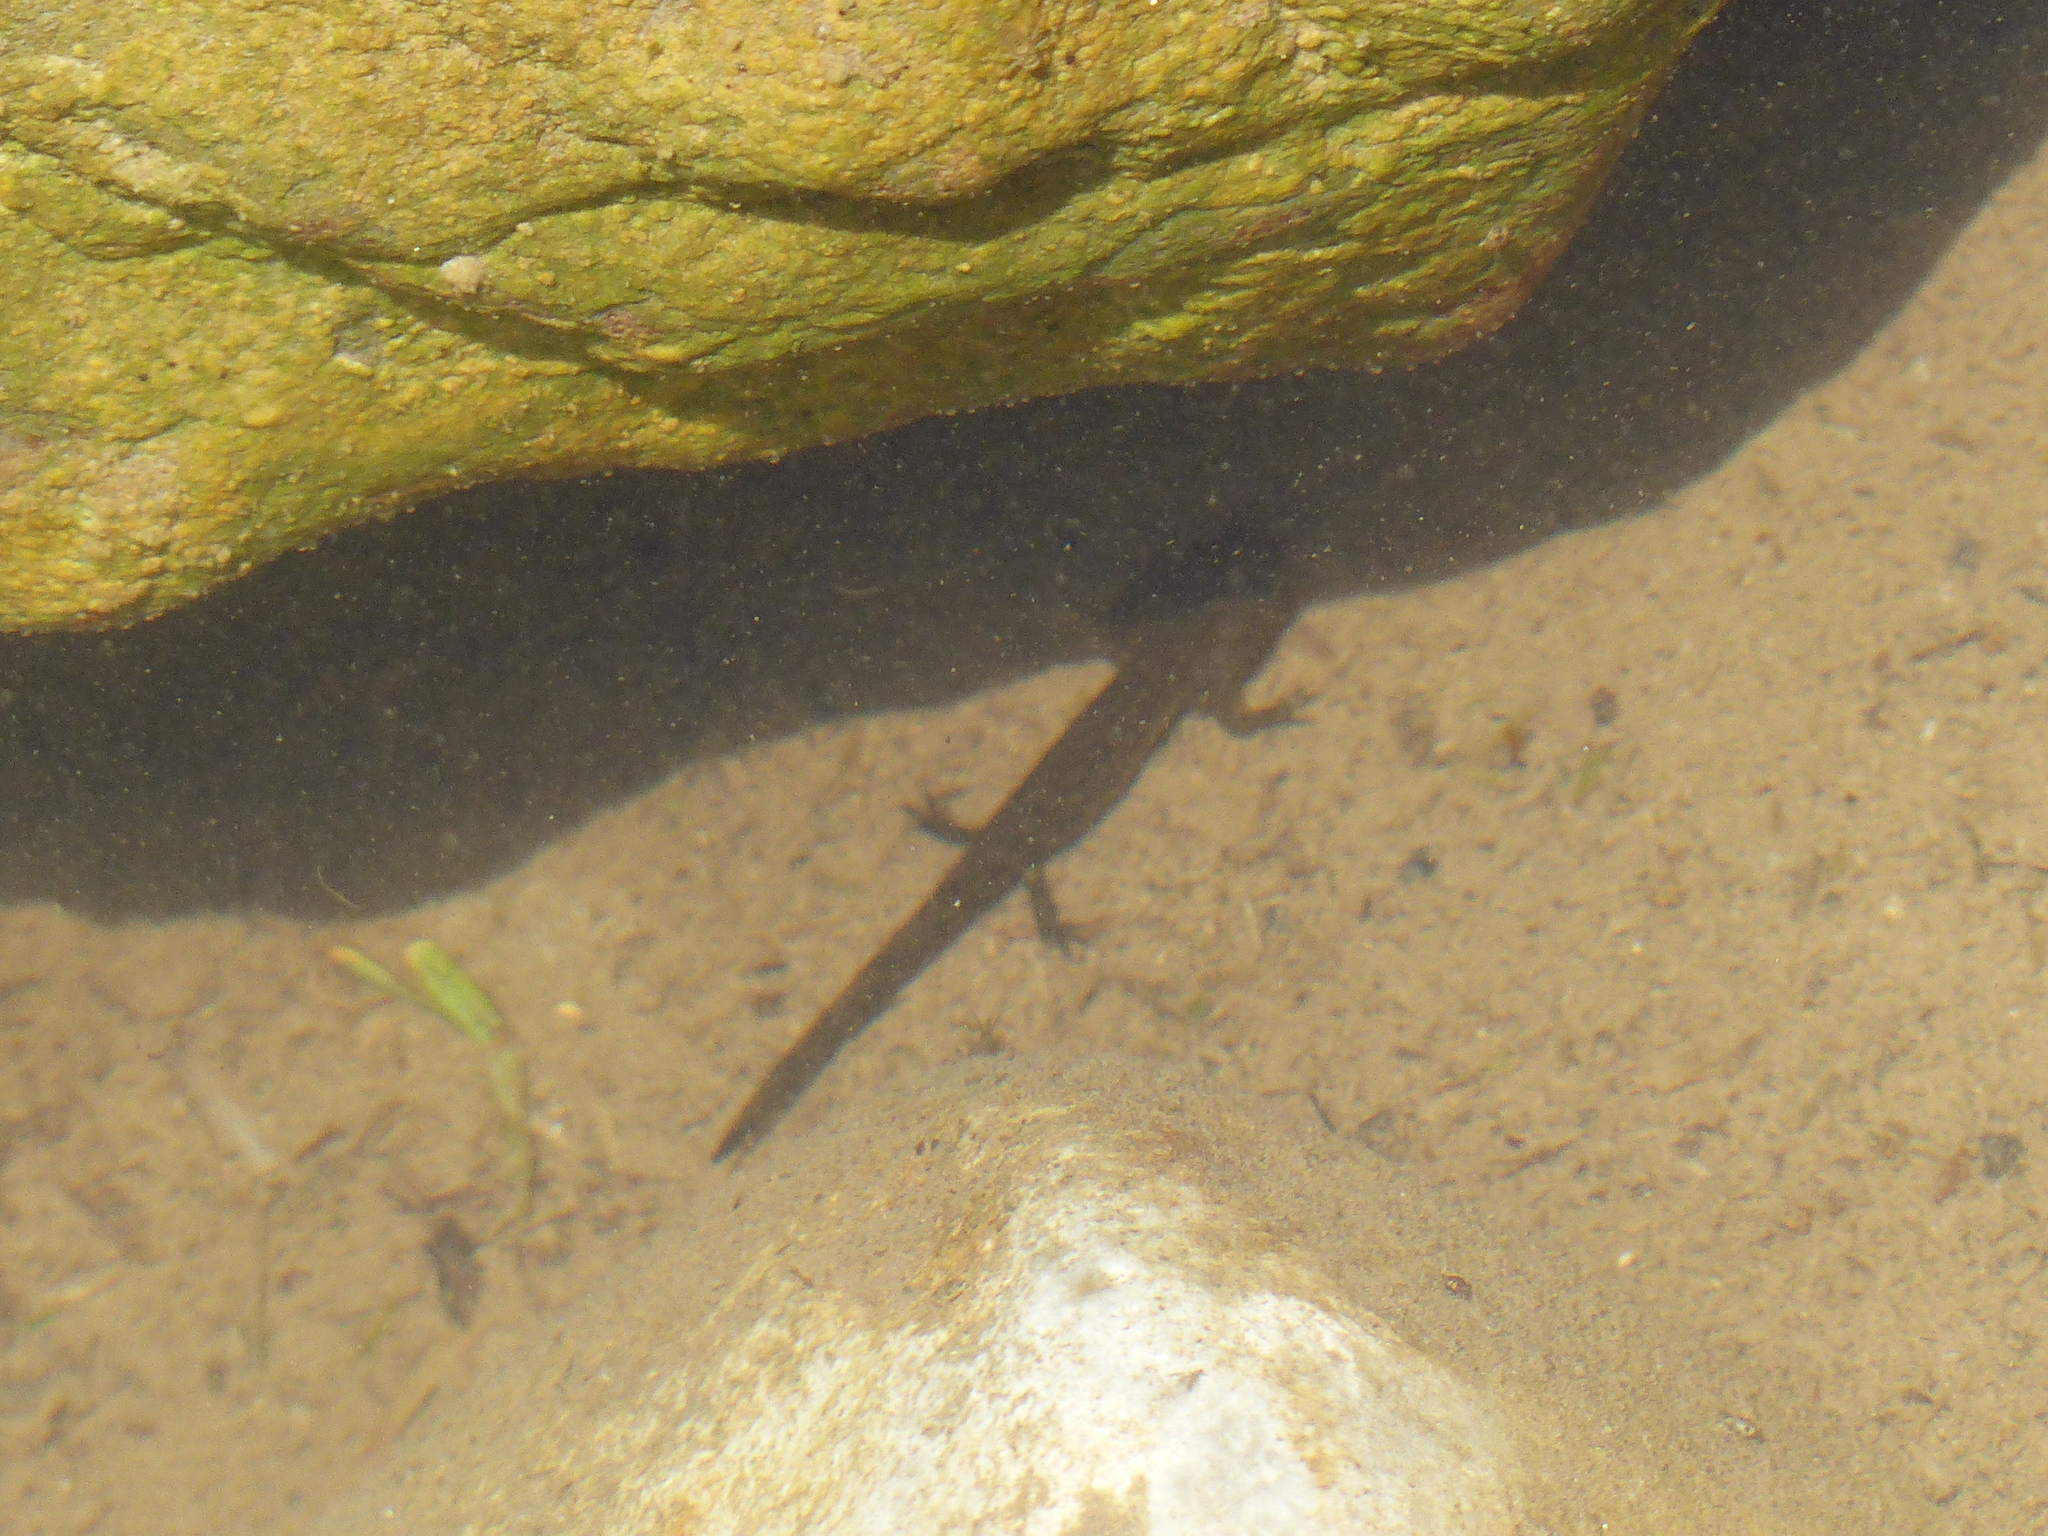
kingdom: Animalia
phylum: Chordata
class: Amphibia
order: Caudata
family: Salamandridae
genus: Salamandra
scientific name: Salamandra salamandra
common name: Fire salamander
